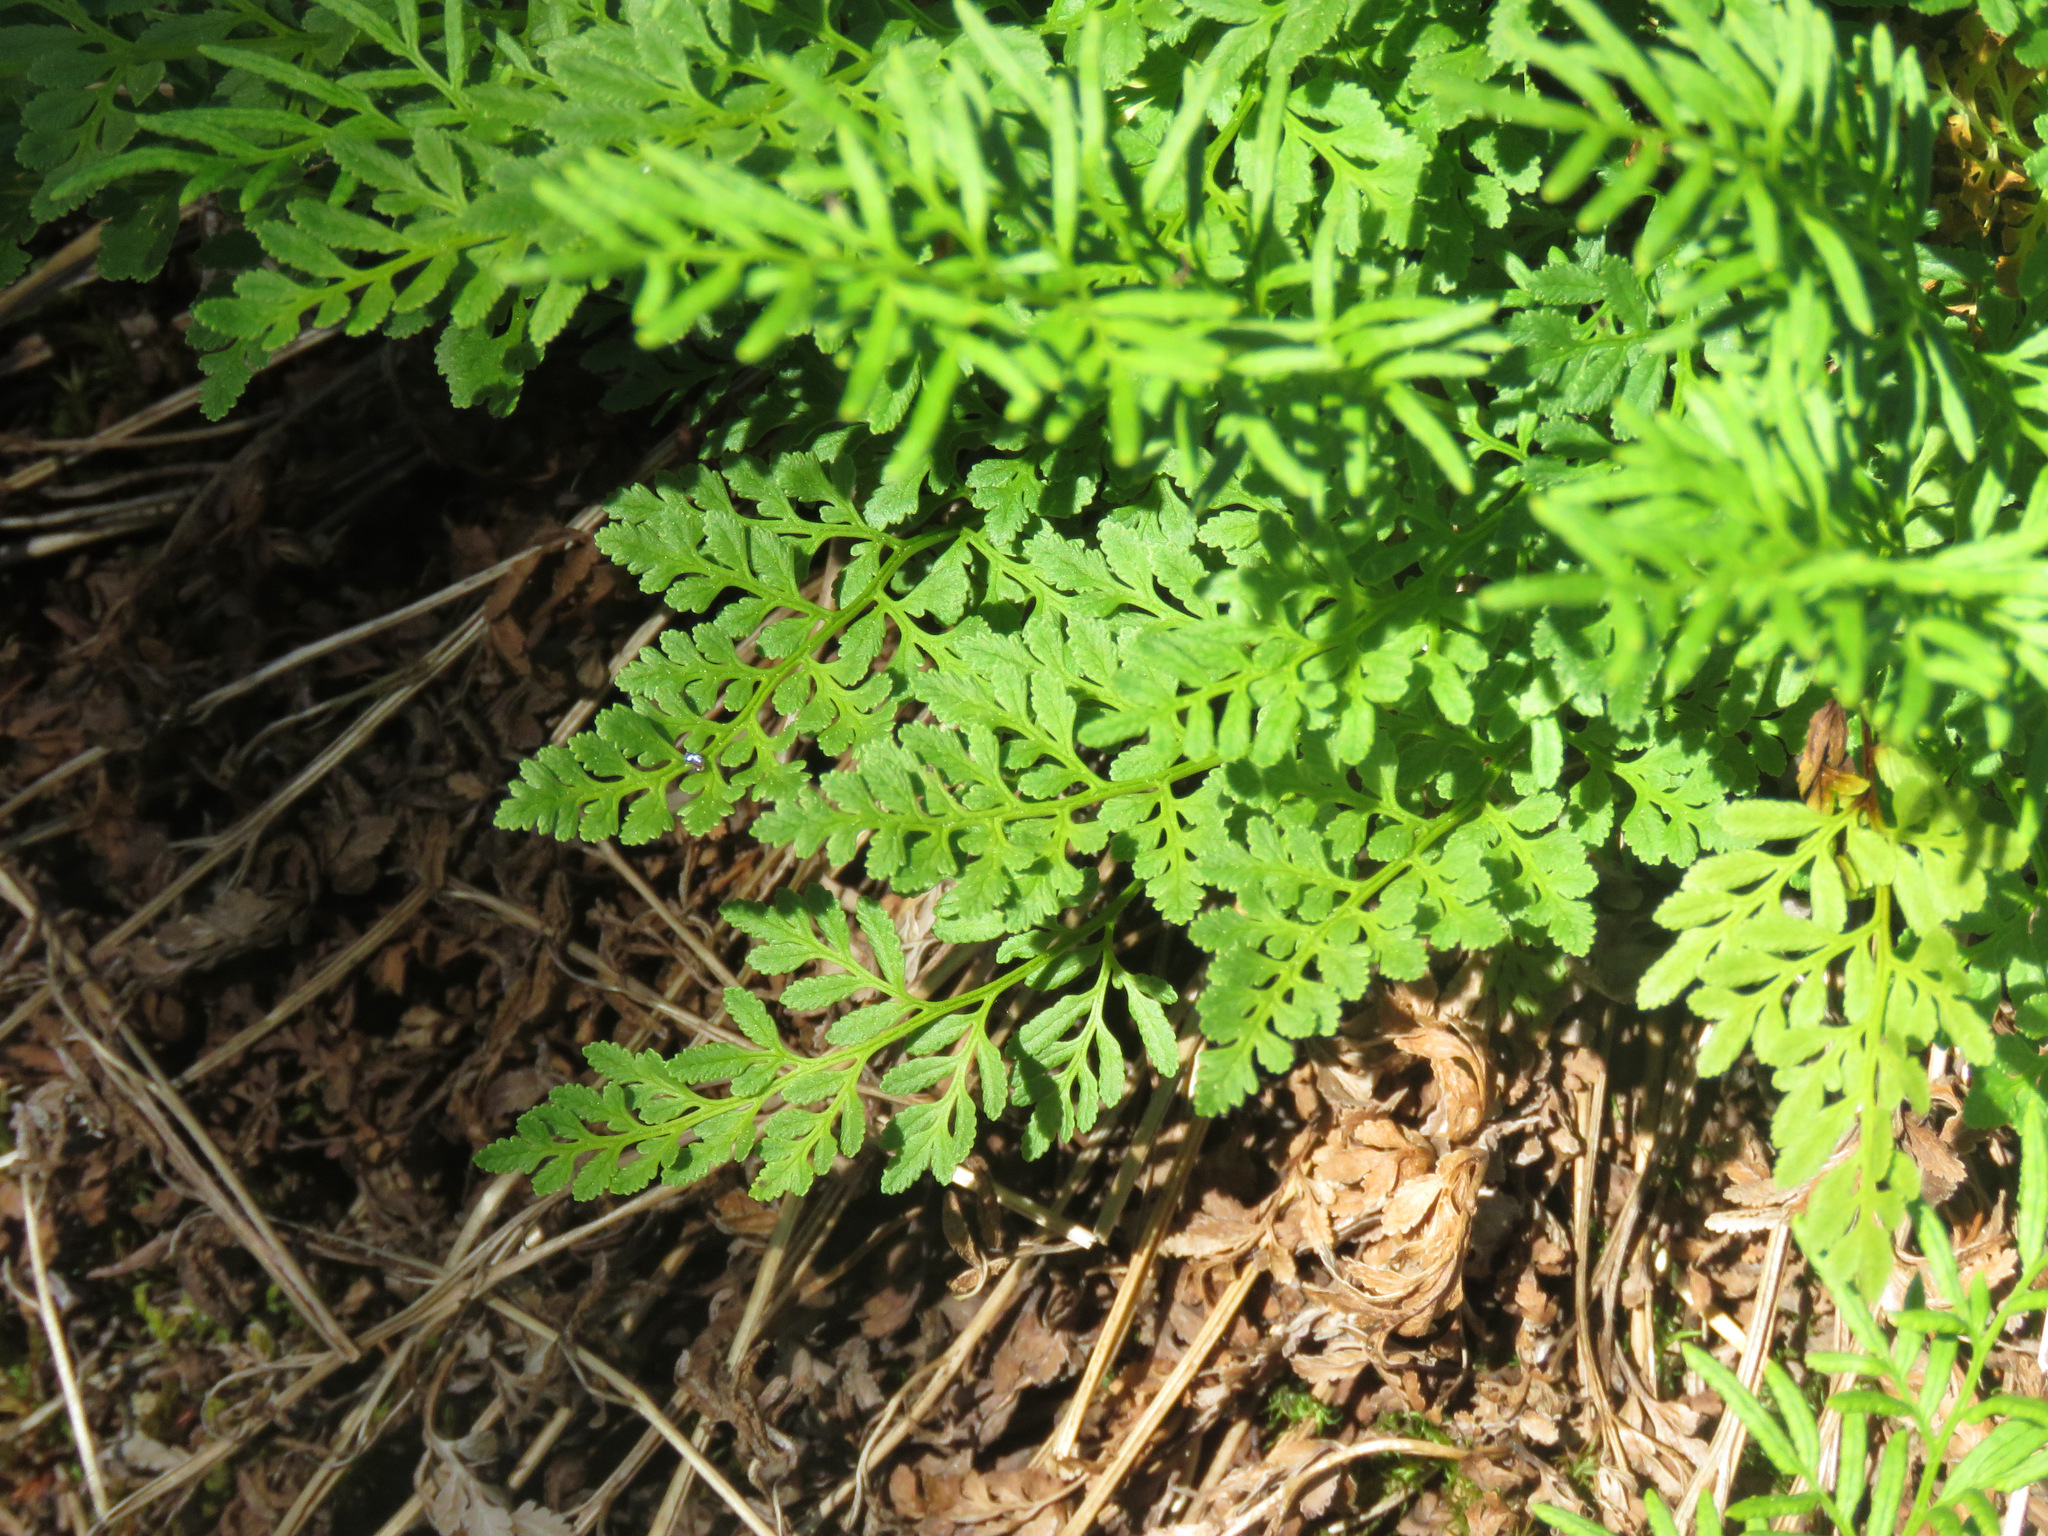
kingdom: Plantae
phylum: Tracheophyta
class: Polypodiopsida
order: Polypodiales
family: Pteridaceae
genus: Cryptogramma
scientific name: Cryptogramma acrostichoides
